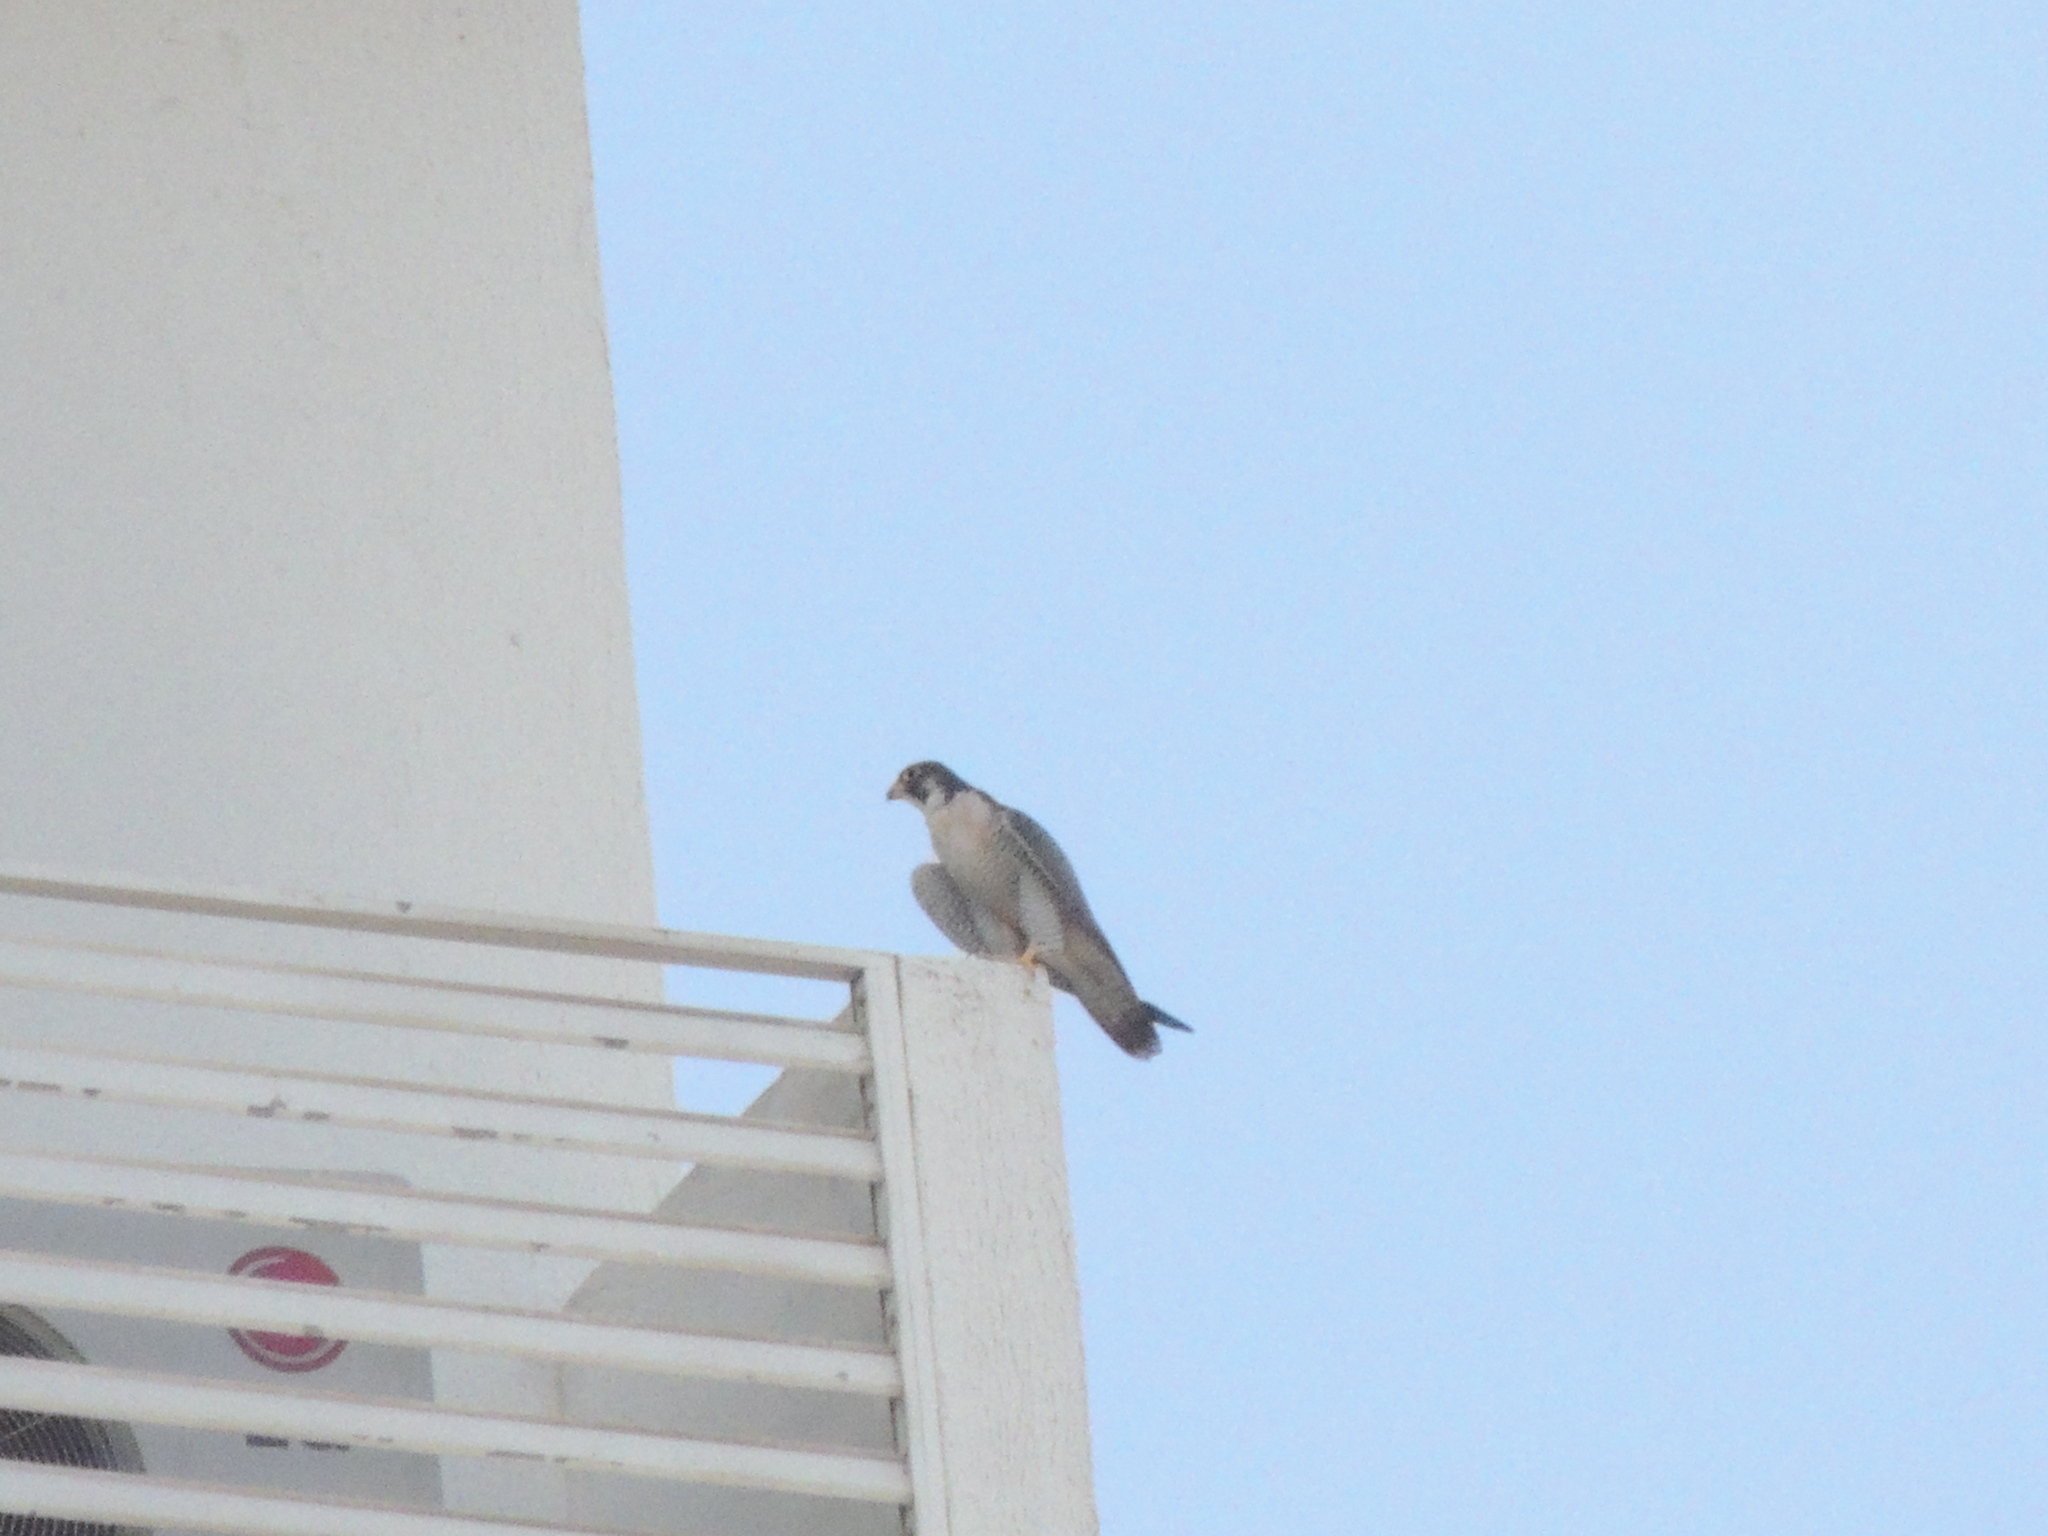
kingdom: Animalia
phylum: Chordata
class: Aves
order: Falconiformes
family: Falconidae
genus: Falco
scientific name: Falco peregrinus
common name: Peregrine falcon
